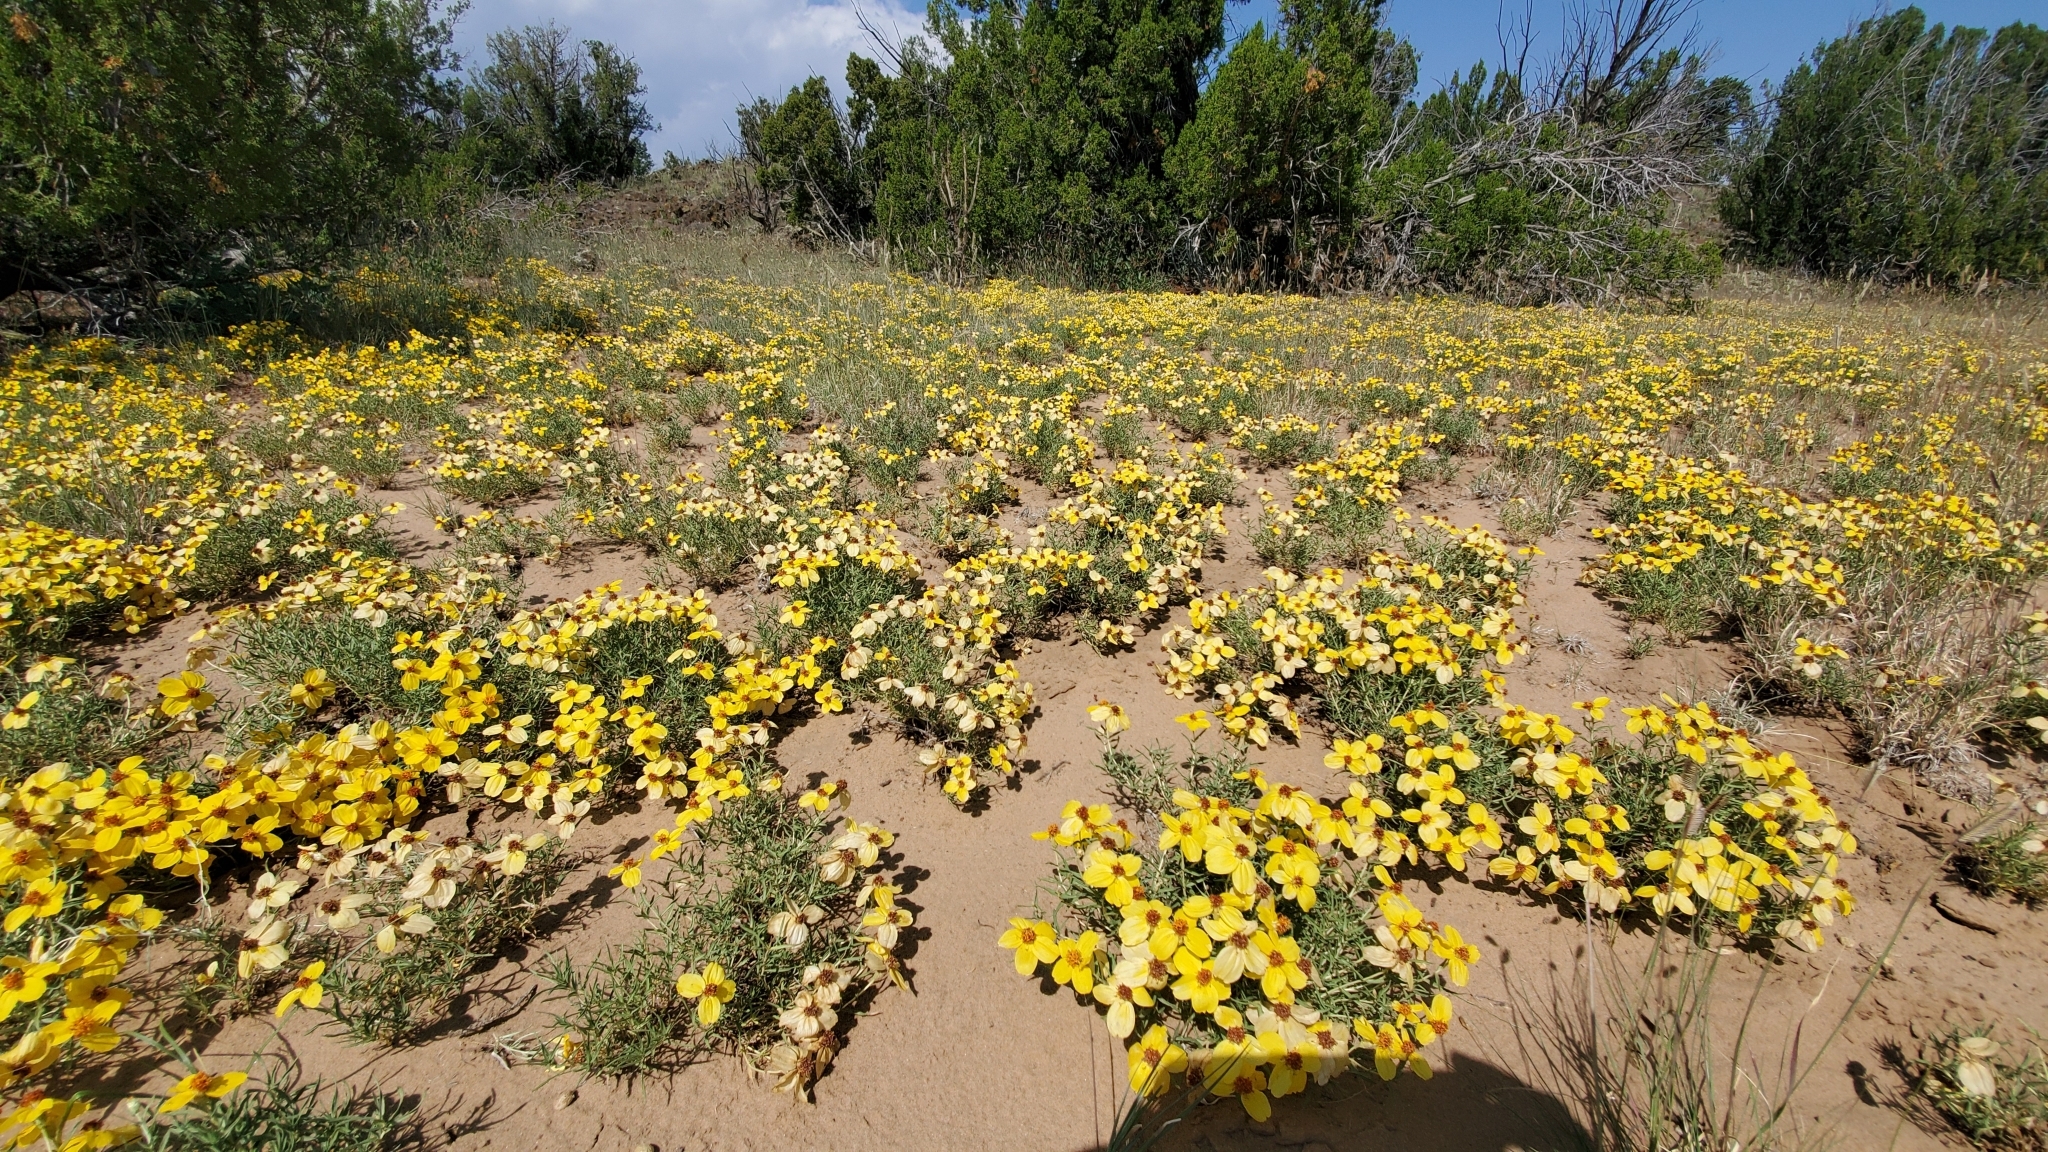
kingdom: Plantae
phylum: Tracheophyta
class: Magnoliopsida
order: Asterales
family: Asteraceae
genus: Zinnia
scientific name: Zinnia grandiflora
